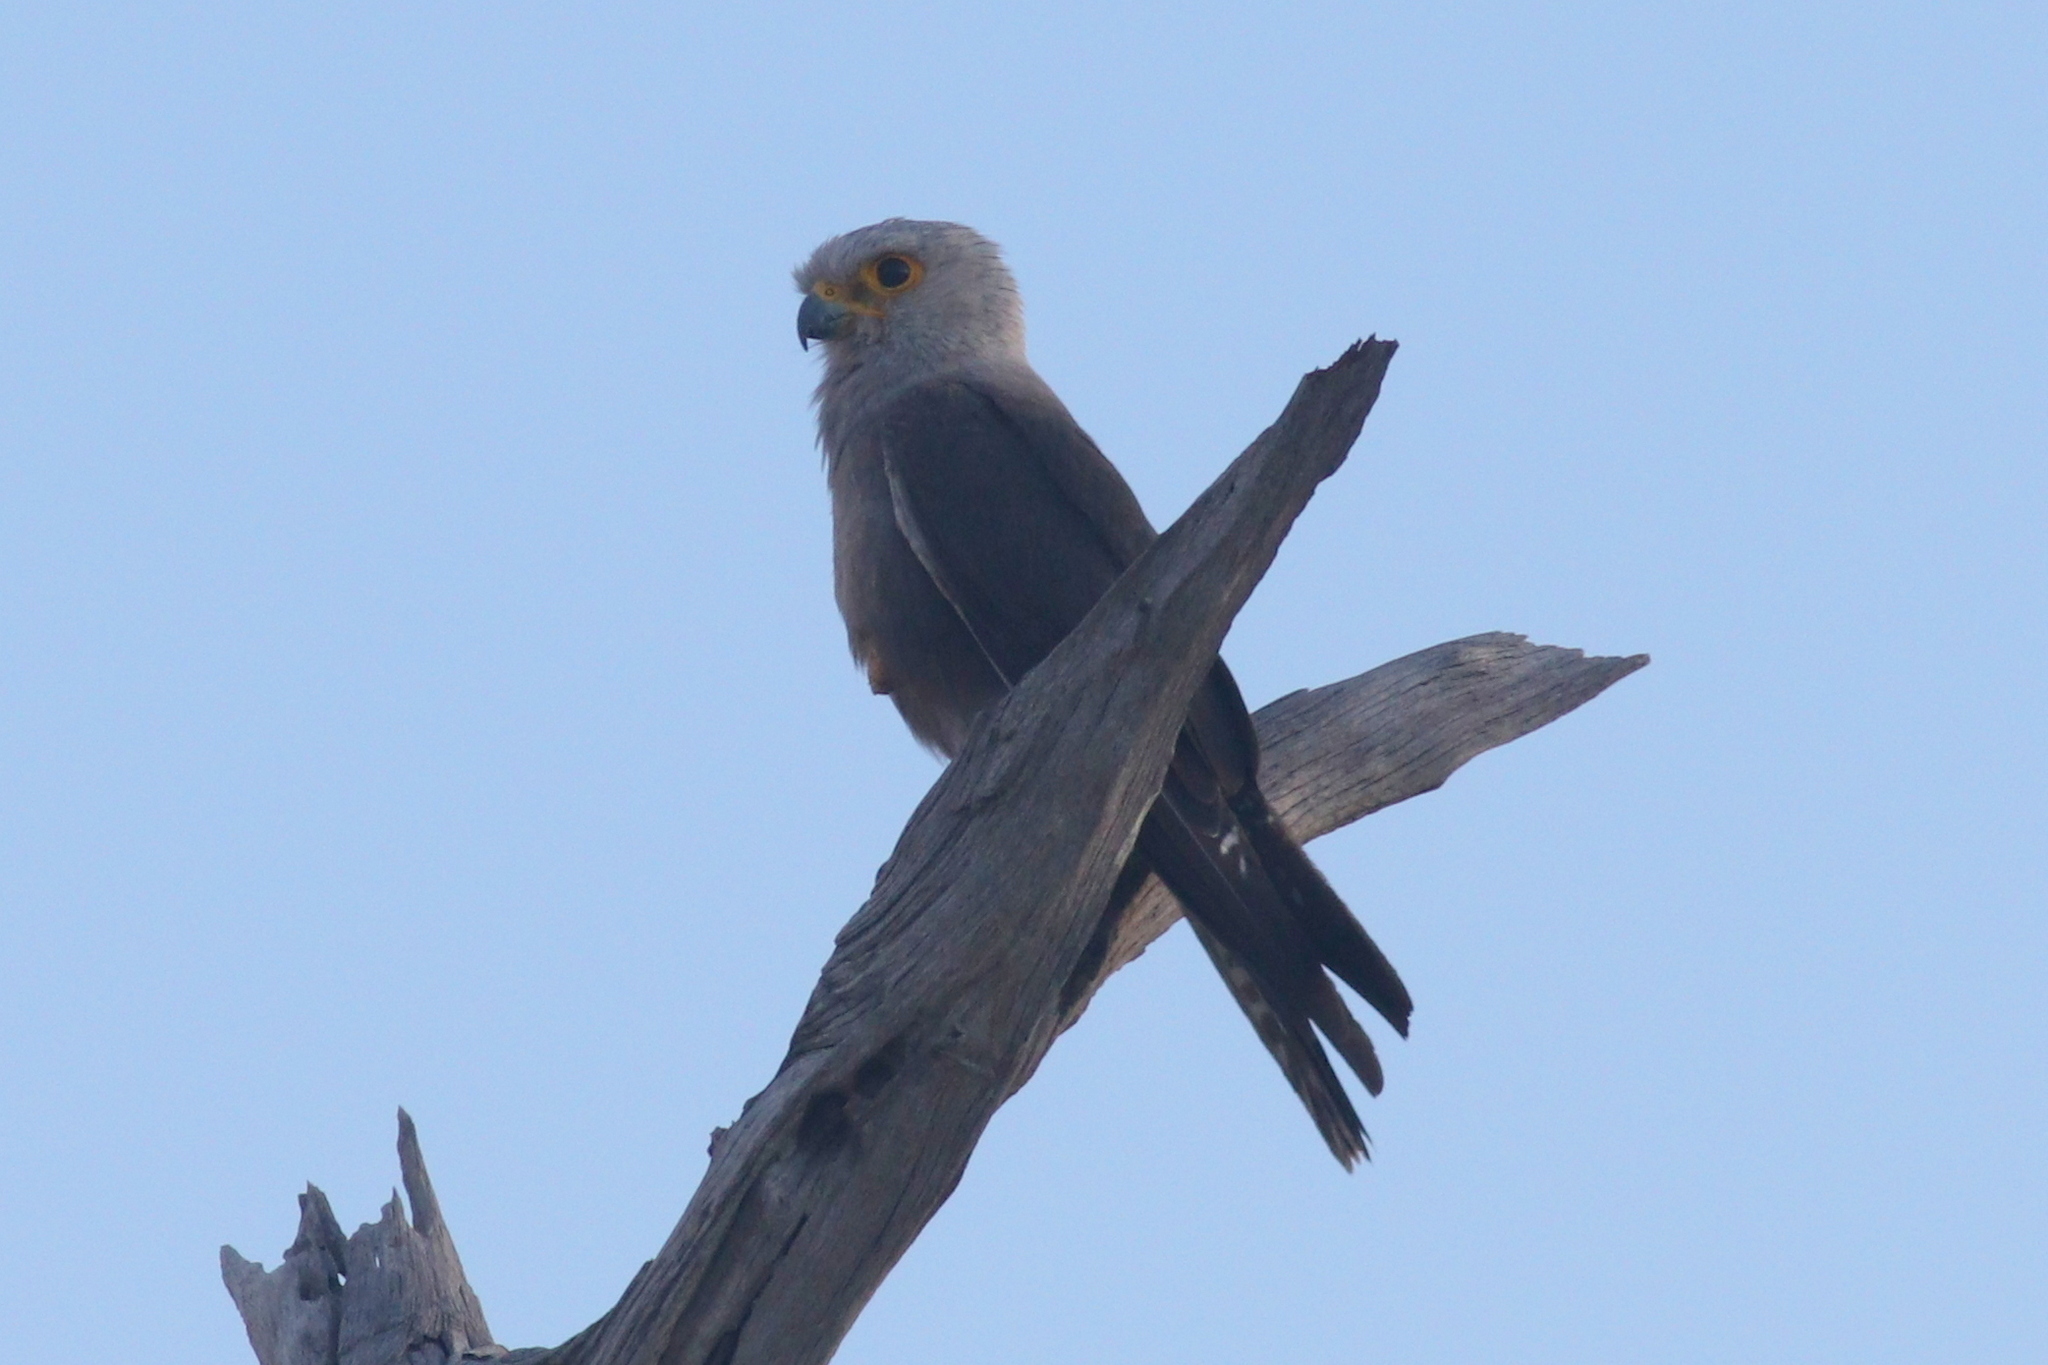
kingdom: Animalia
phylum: Chordata
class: Aves
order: Falconiformes
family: Falconidae
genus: Falco
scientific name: Falco dickinsoni
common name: Dickinson's kestrel
